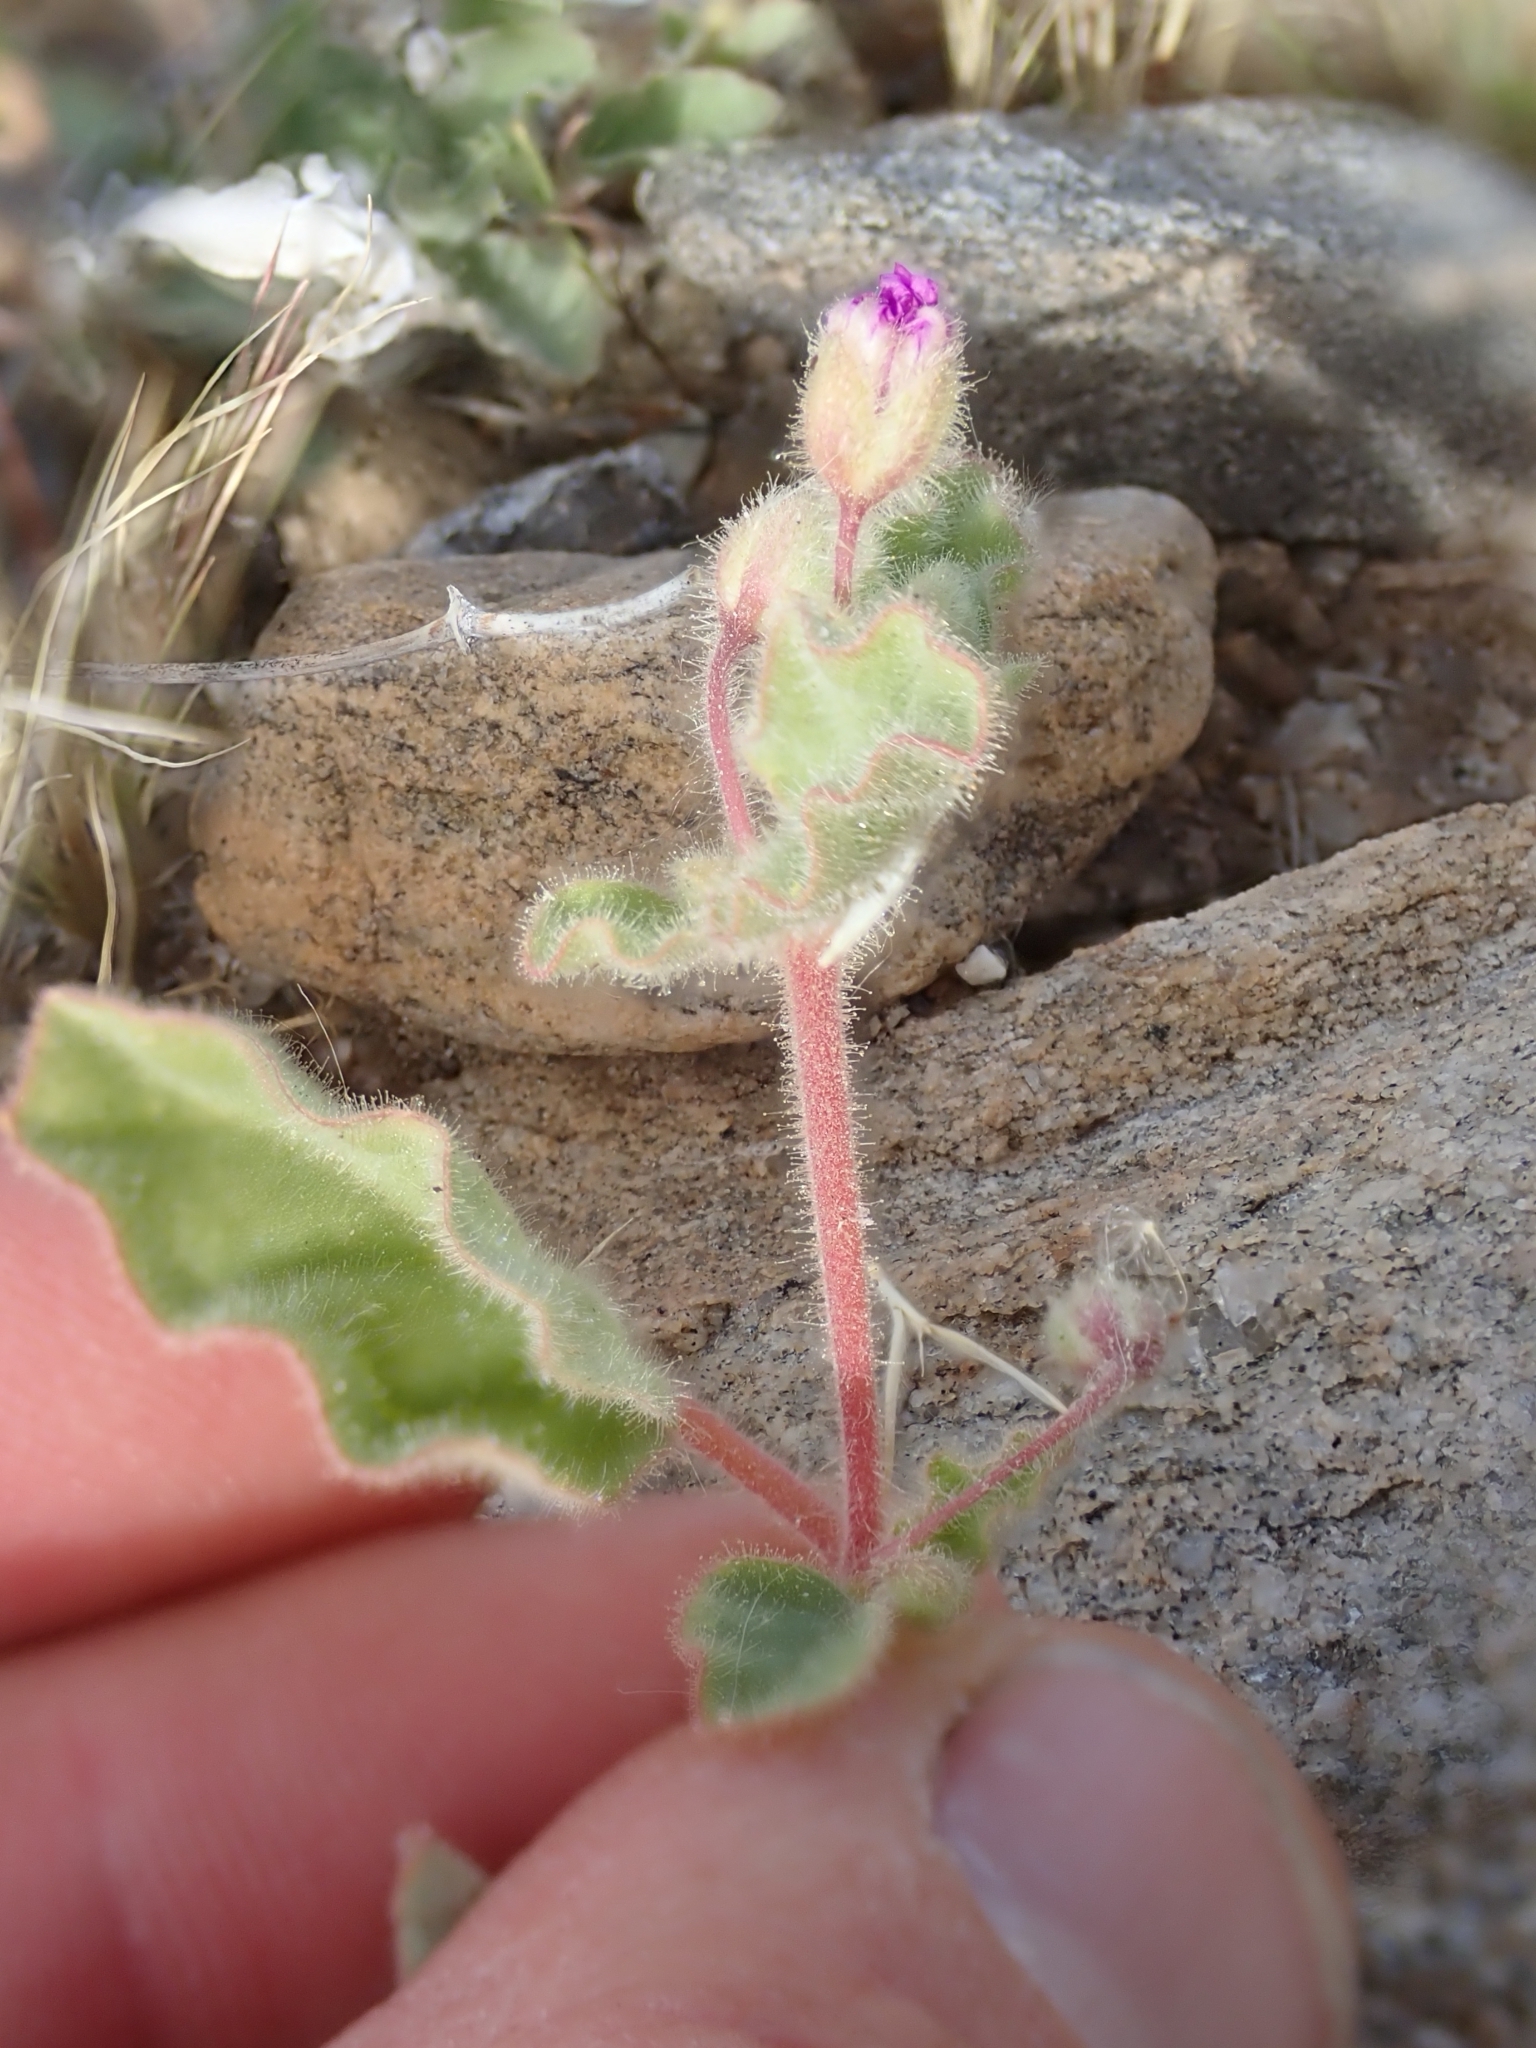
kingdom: Plantae
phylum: Tracheophyta
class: Magnoliopsida
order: Caryophyllales
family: Nyctaginaceae
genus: Allionia
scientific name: Allionia incarnata
